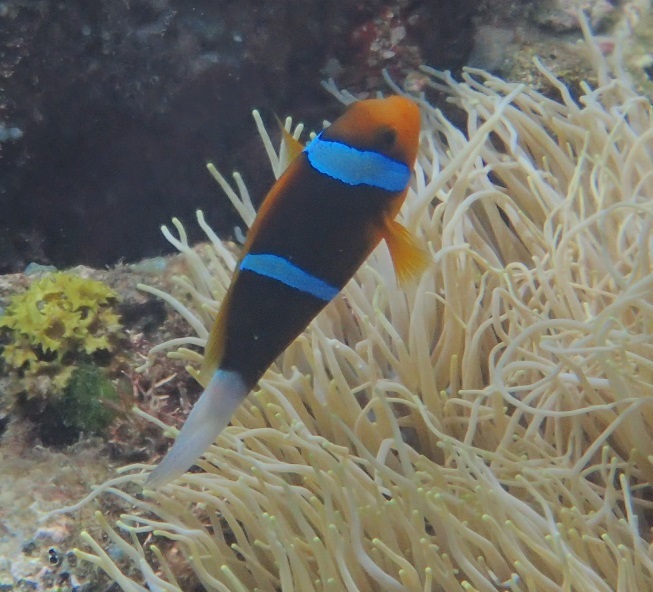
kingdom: Animalia
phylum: Chordata
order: Perciformes
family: Pomacentridae
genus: Amphiprion
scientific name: Amphiprion chrysopterus
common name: Orange-fin anemonefish
